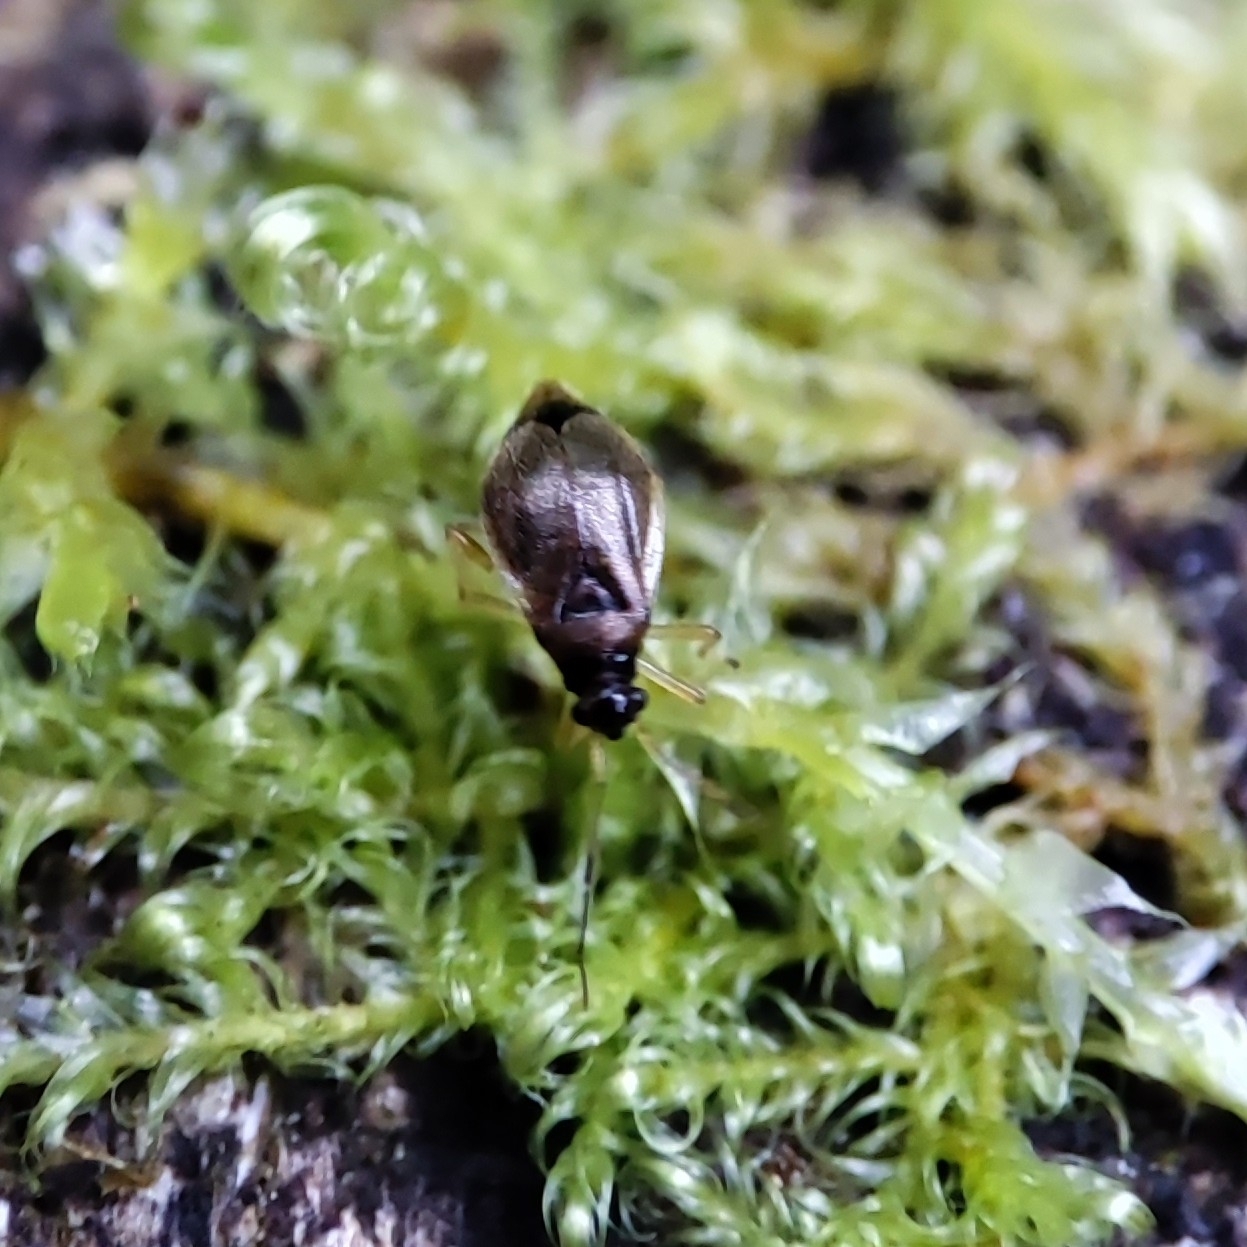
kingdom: Animalia
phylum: Arthropoda
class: Insecta
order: Hemiptera
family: Miridae
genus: Bryocoris
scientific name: Bryocoris pteridis
